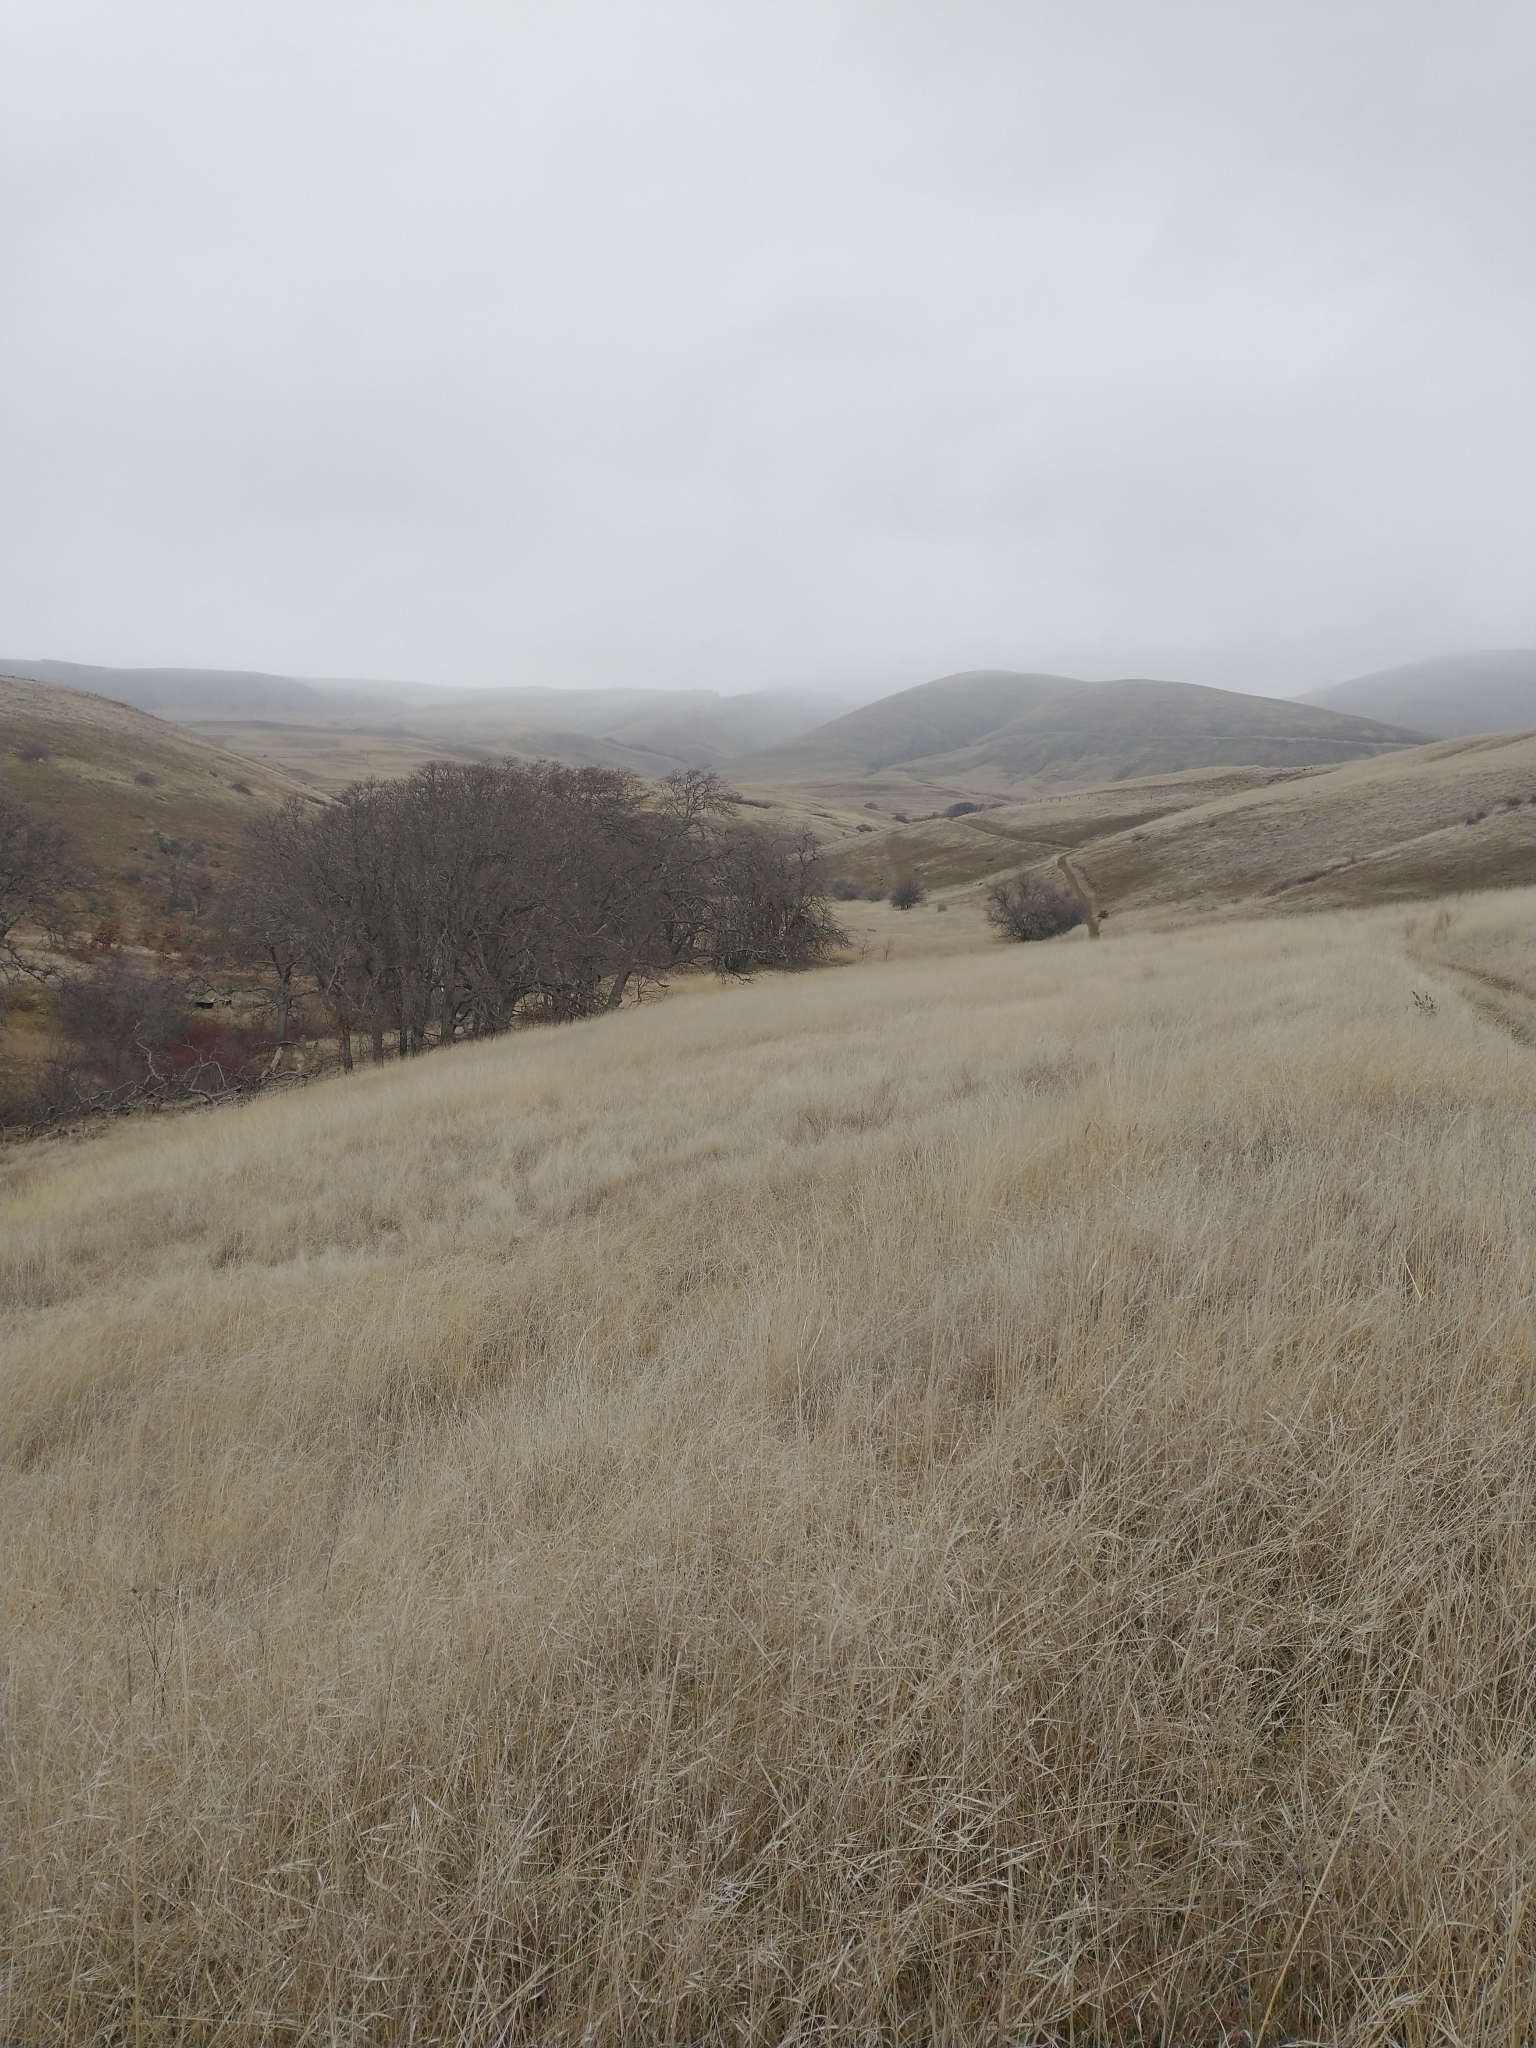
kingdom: Plantae
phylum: Tracheophyta
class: Magnoliopsida
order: Fagales
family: Fagaceae
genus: Quercus
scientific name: Quercus garryana
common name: Garry oak
